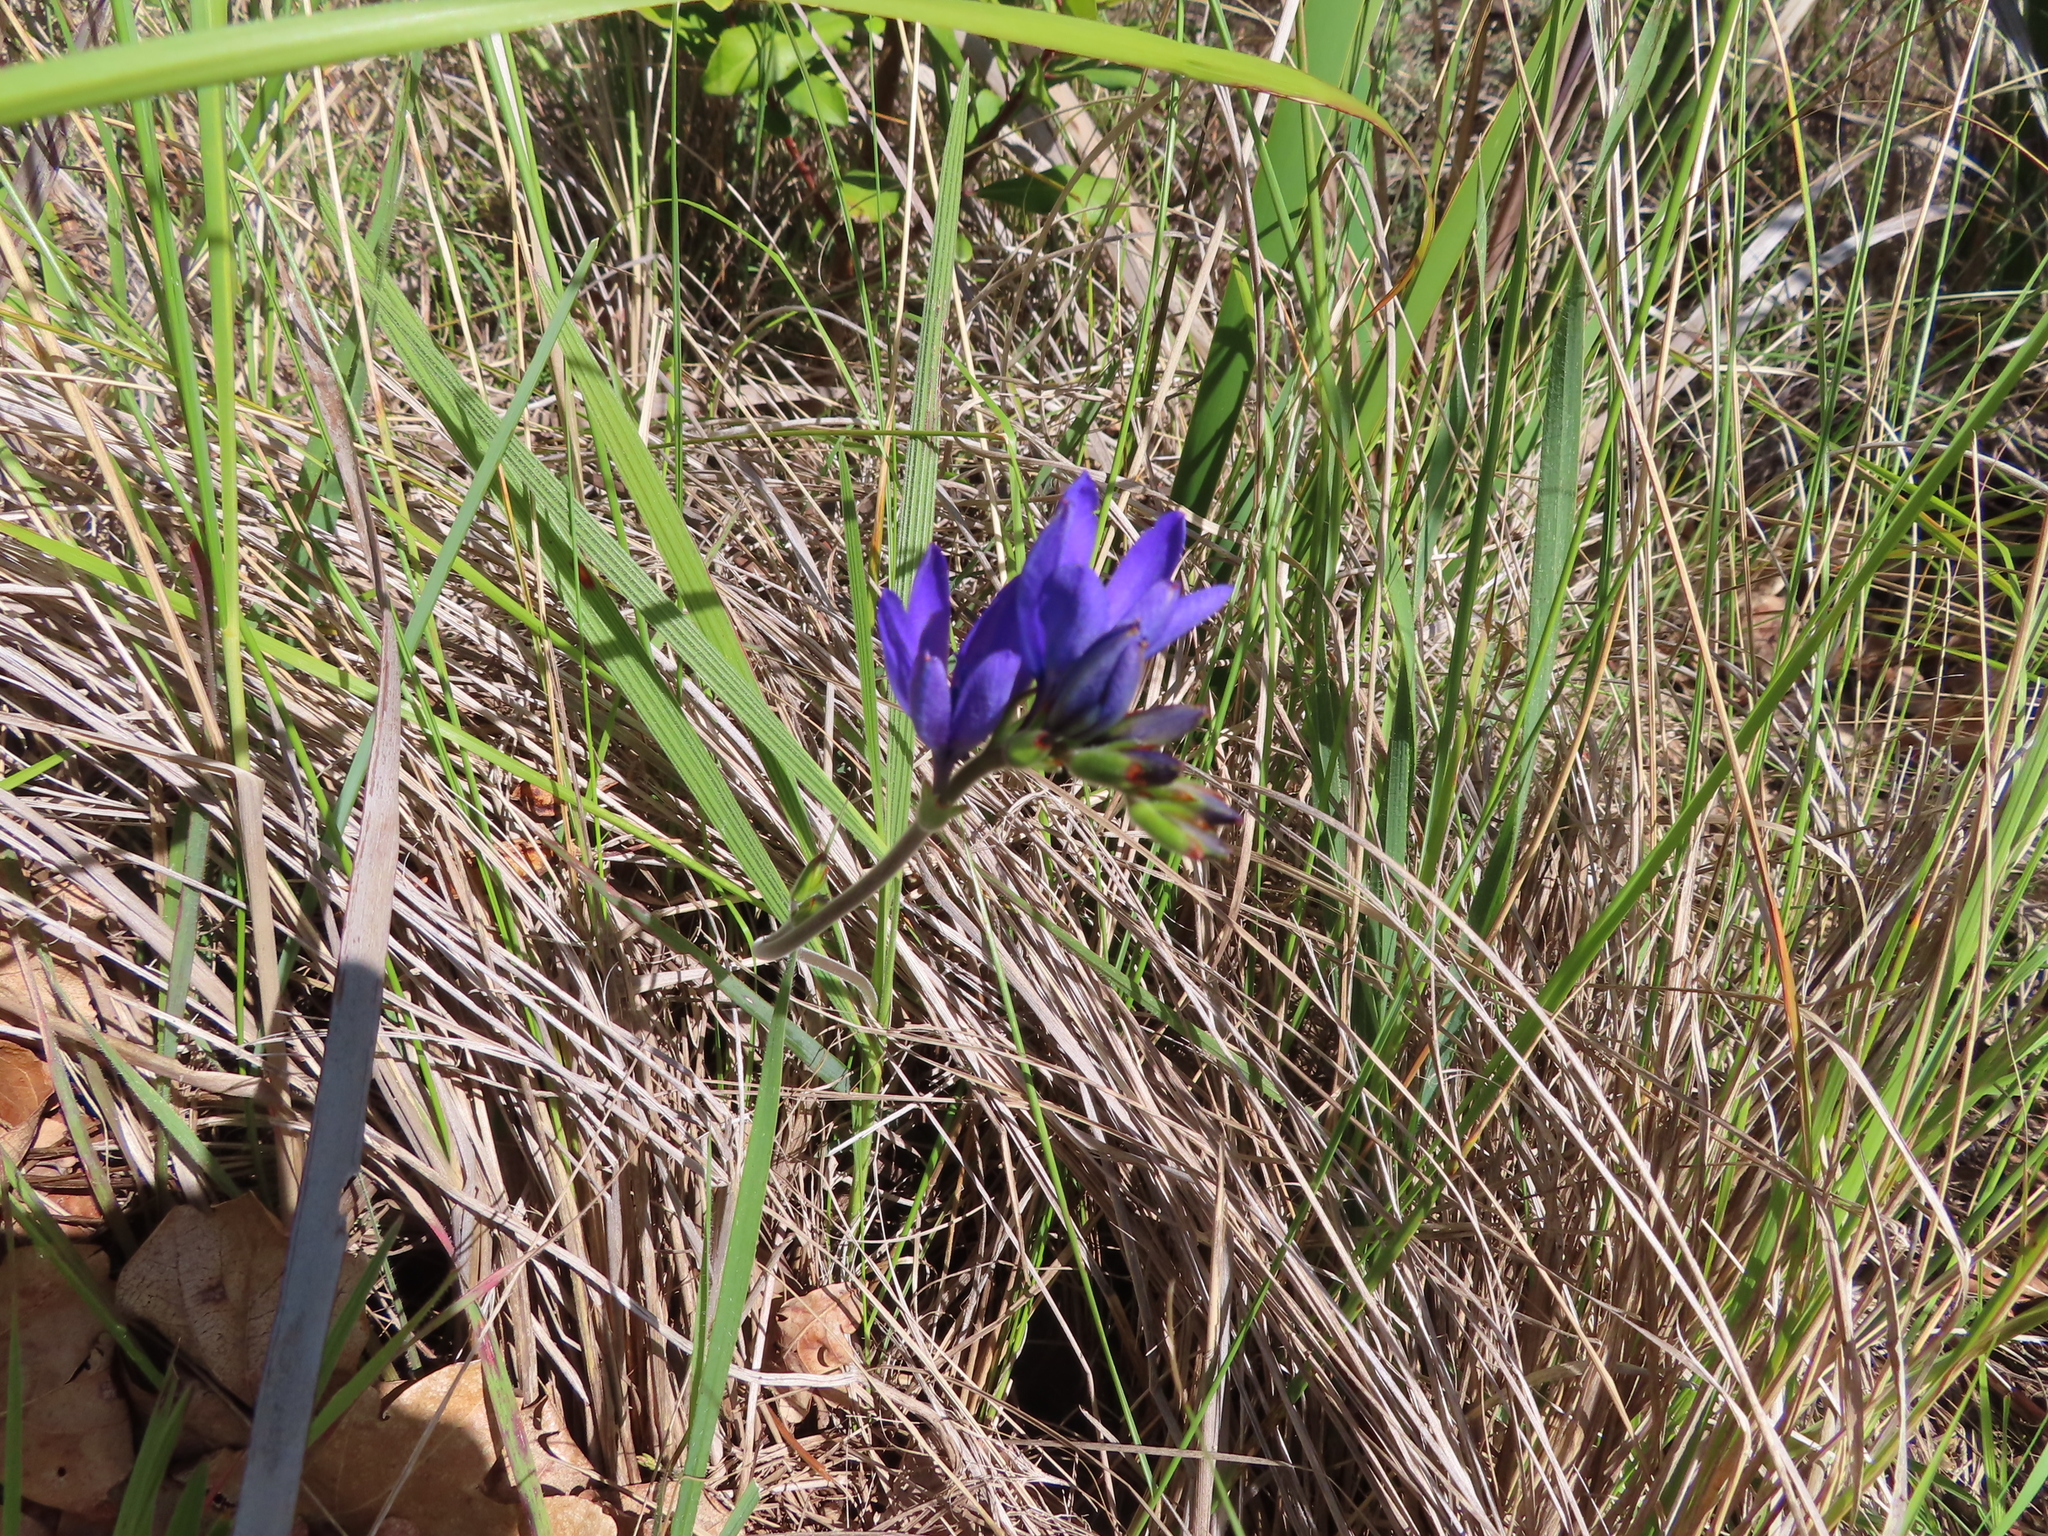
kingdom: Plantae
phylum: Tracheophyta
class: Liliopsida
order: Asparagales
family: Iridaceae
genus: Babiana
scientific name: Babiana angustifolia
